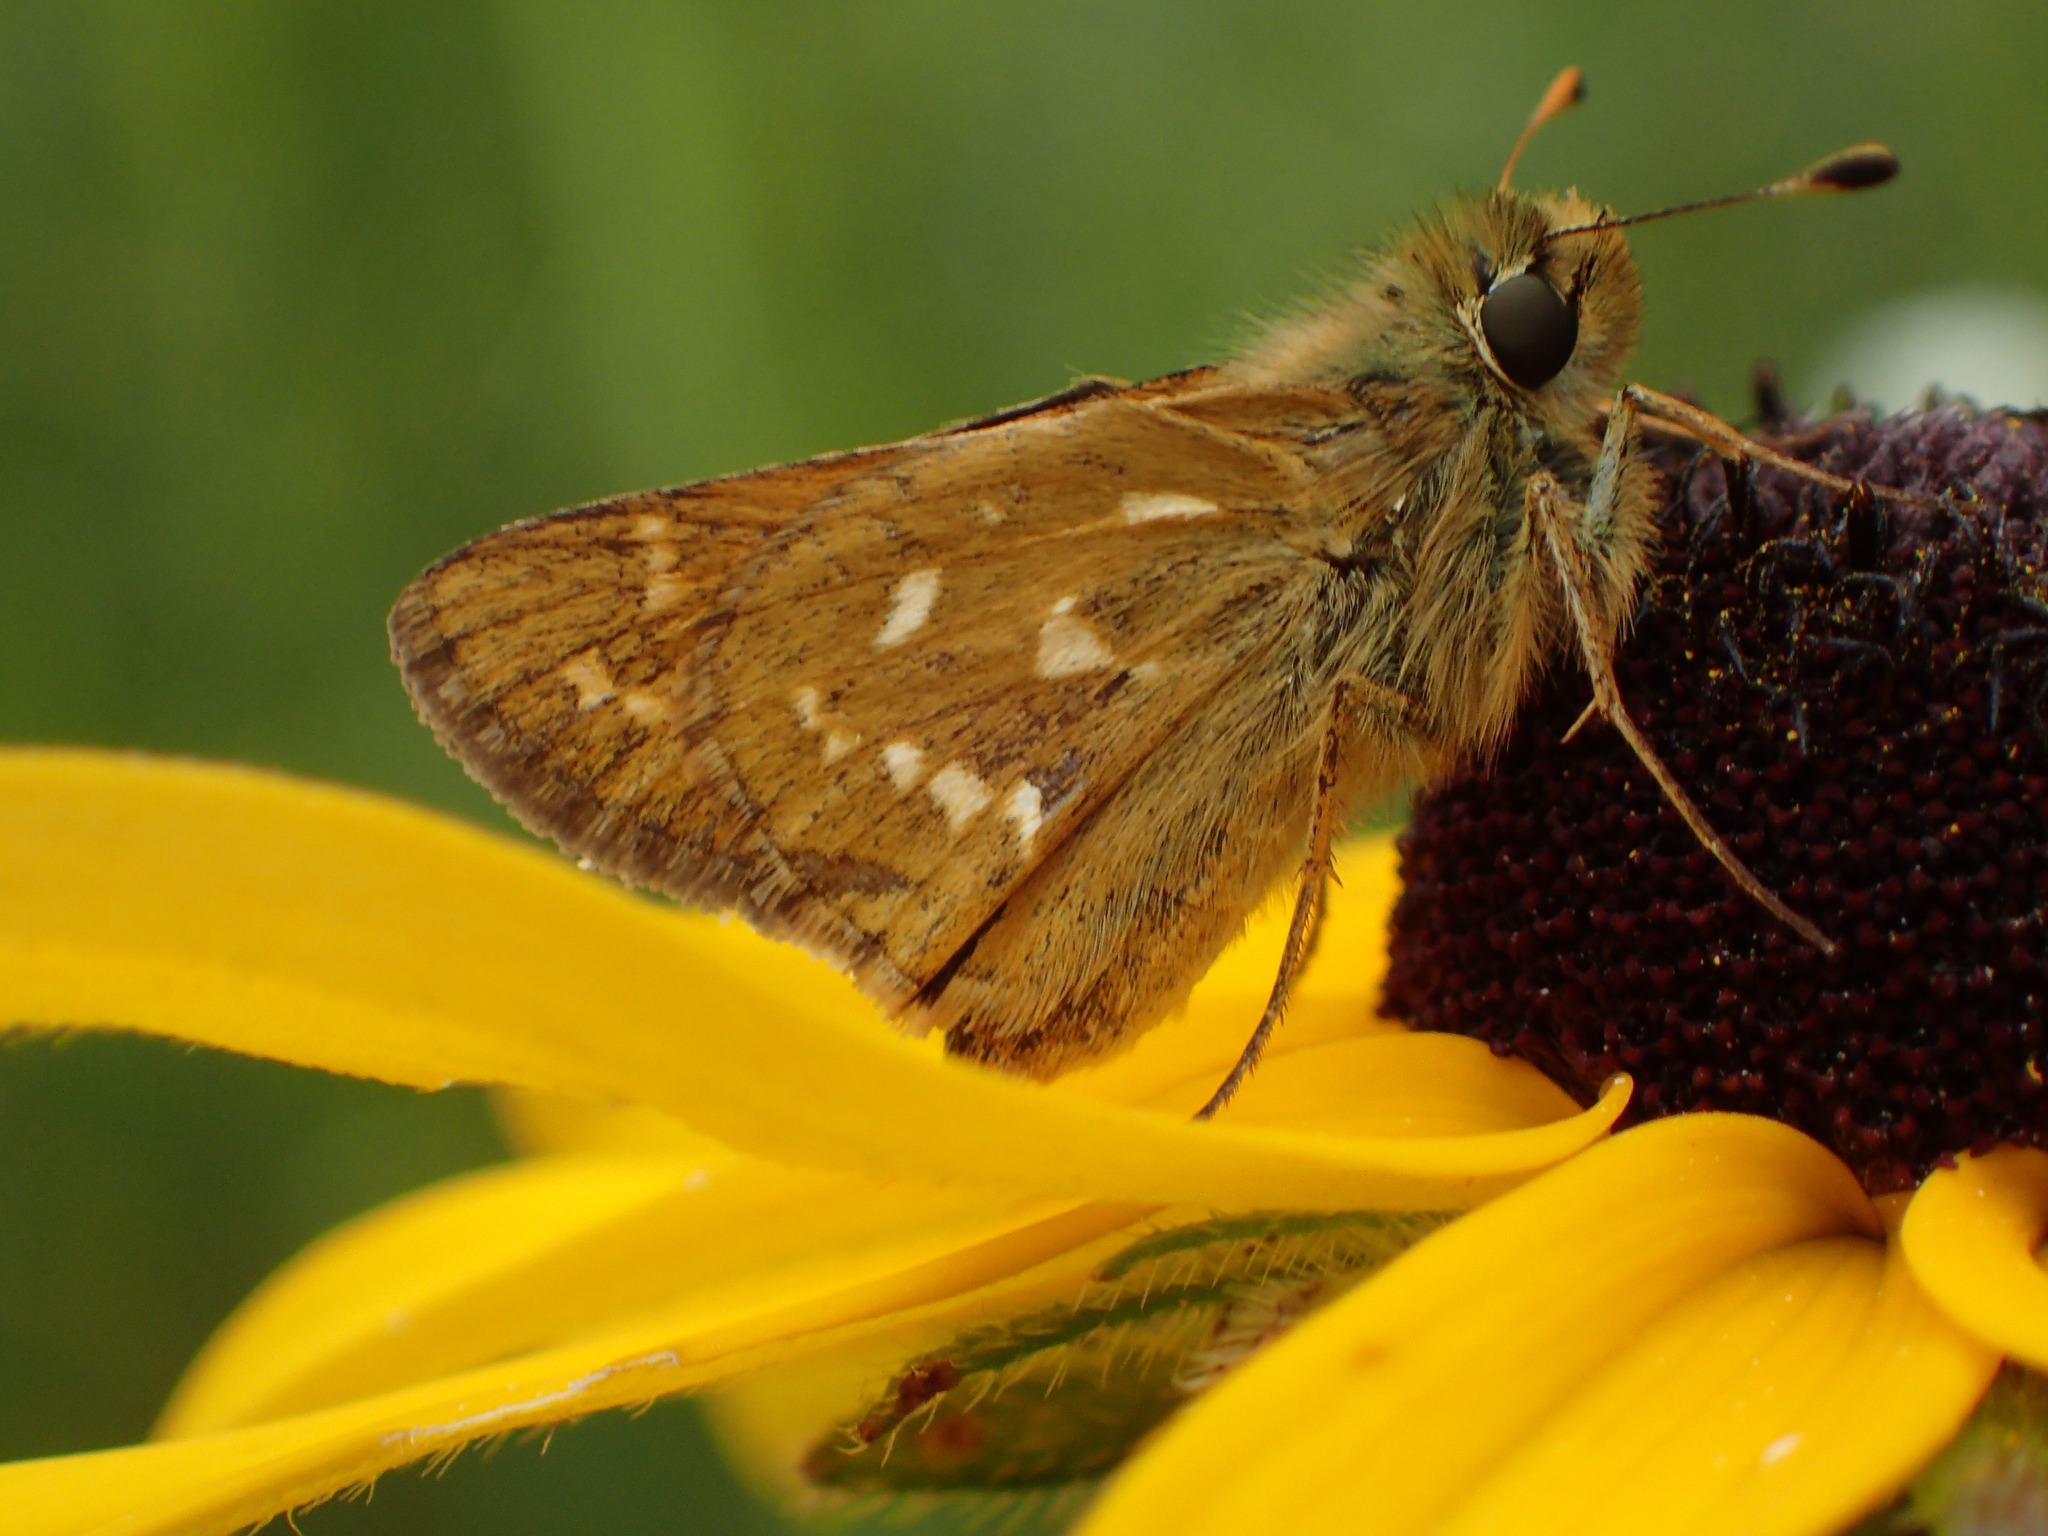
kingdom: Animalia
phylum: Arthropoda
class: Insecta
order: Lepidoptera
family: Hesperiidae
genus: Hesperia
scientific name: Hesperia comma
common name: Common branded skipper
